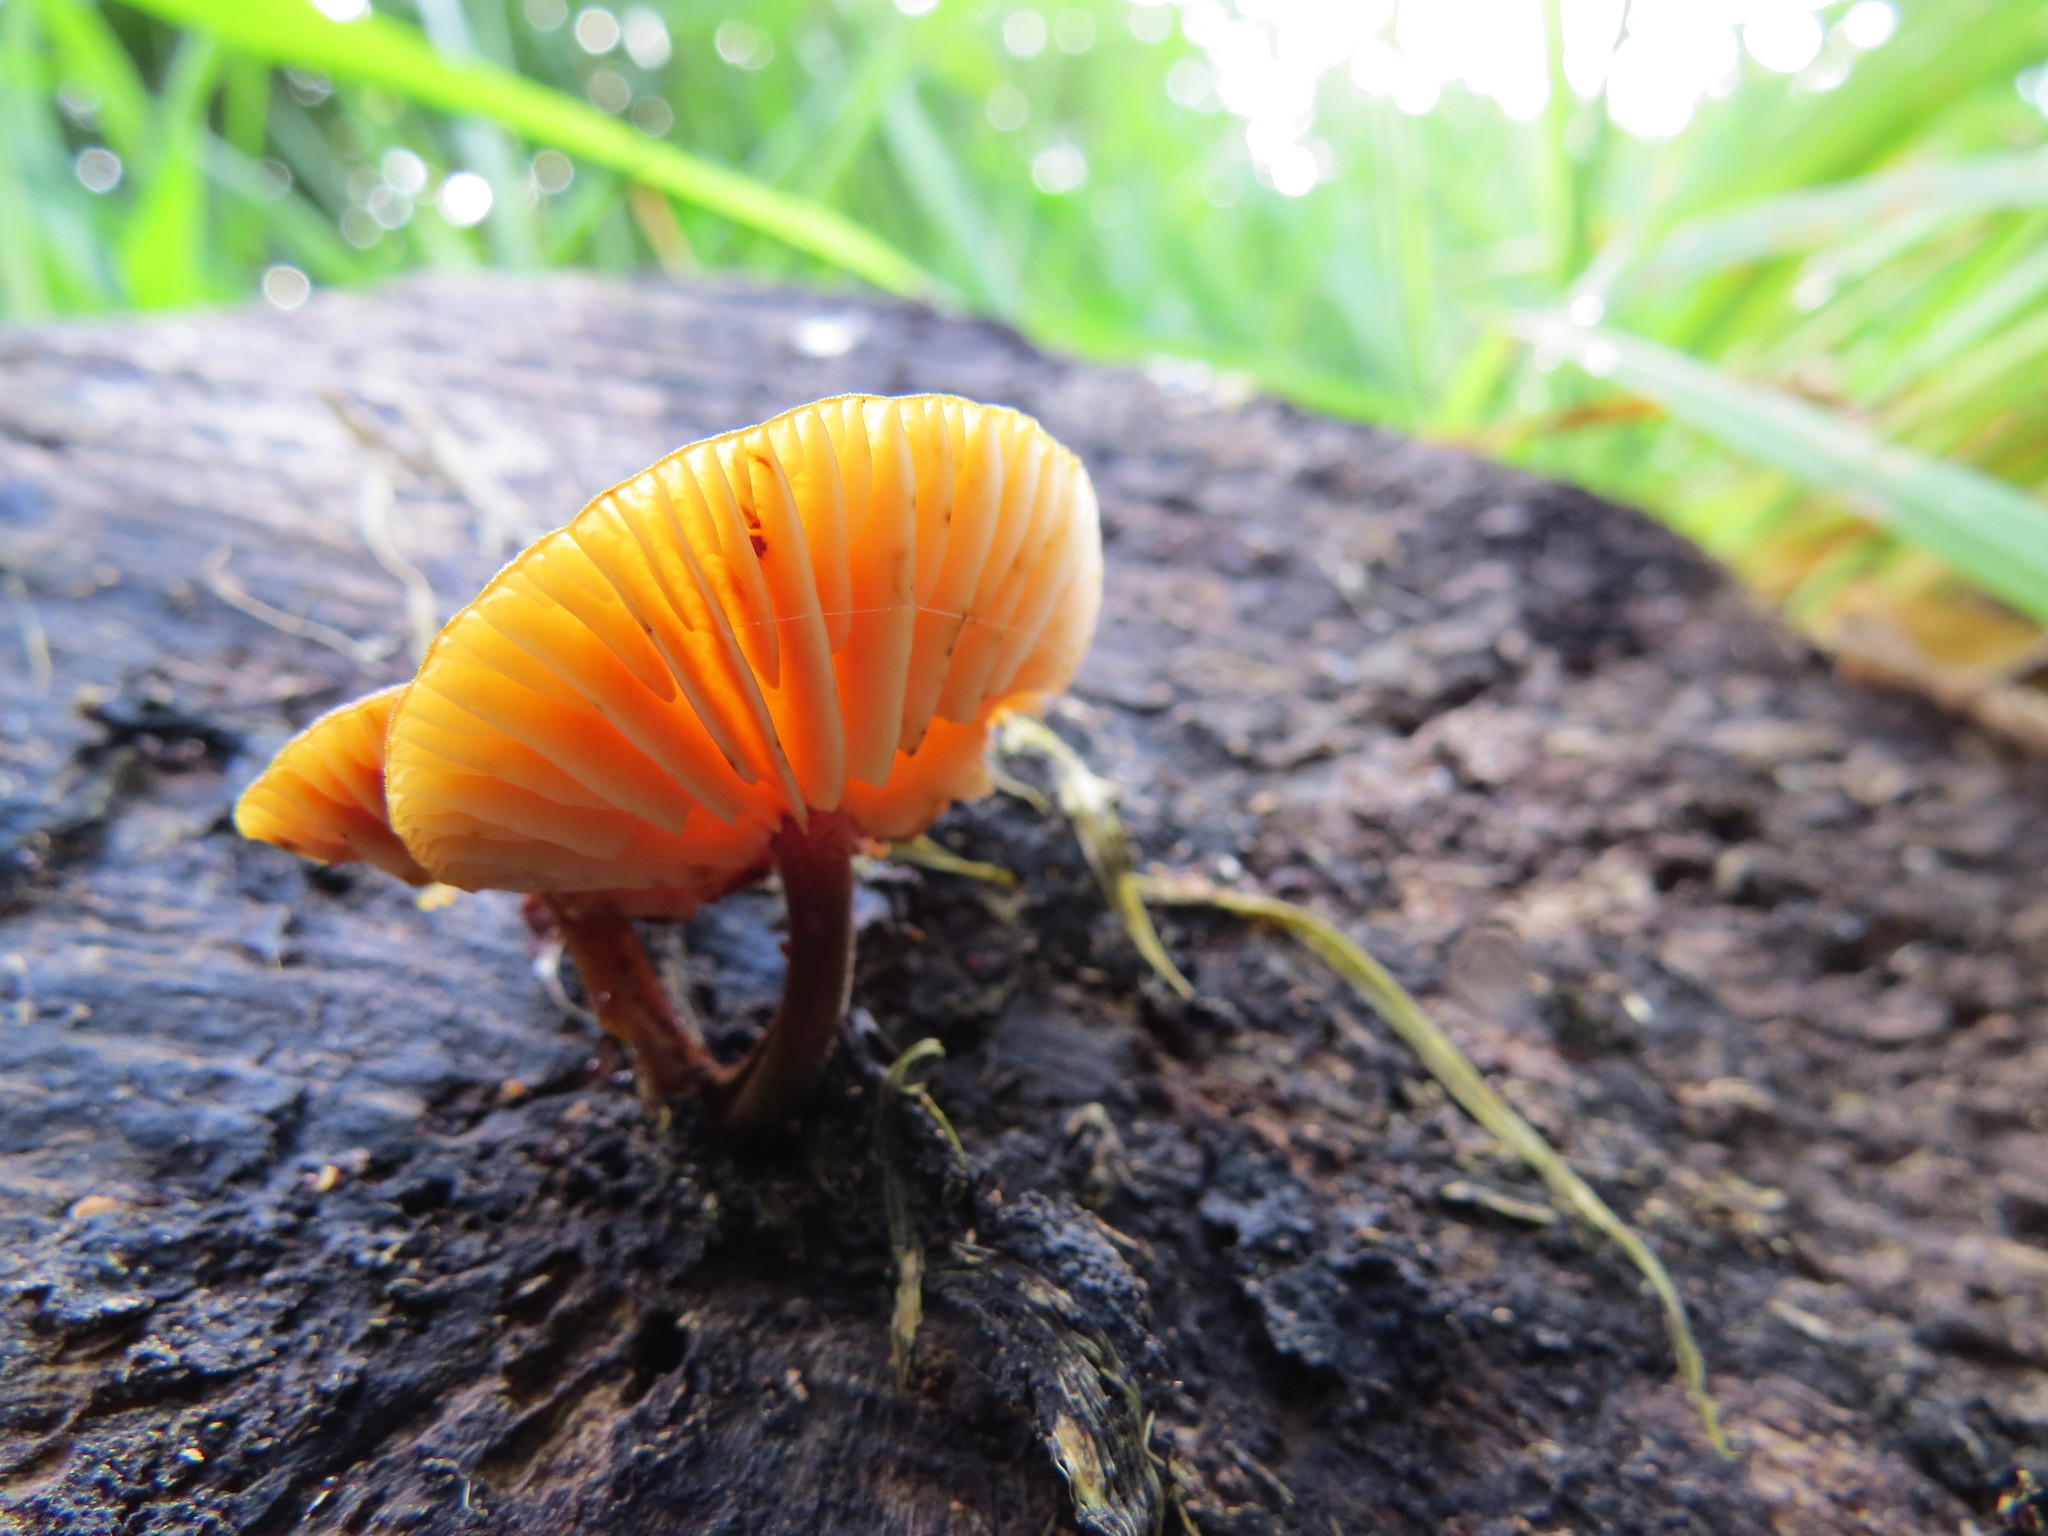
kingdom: Fungi
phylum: Basidiomycota
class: Agaricomycetes
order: Agaricales
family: Physalacriaceae
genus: Flammulina
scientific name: Flammulina velutipes
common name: Velvet shank
